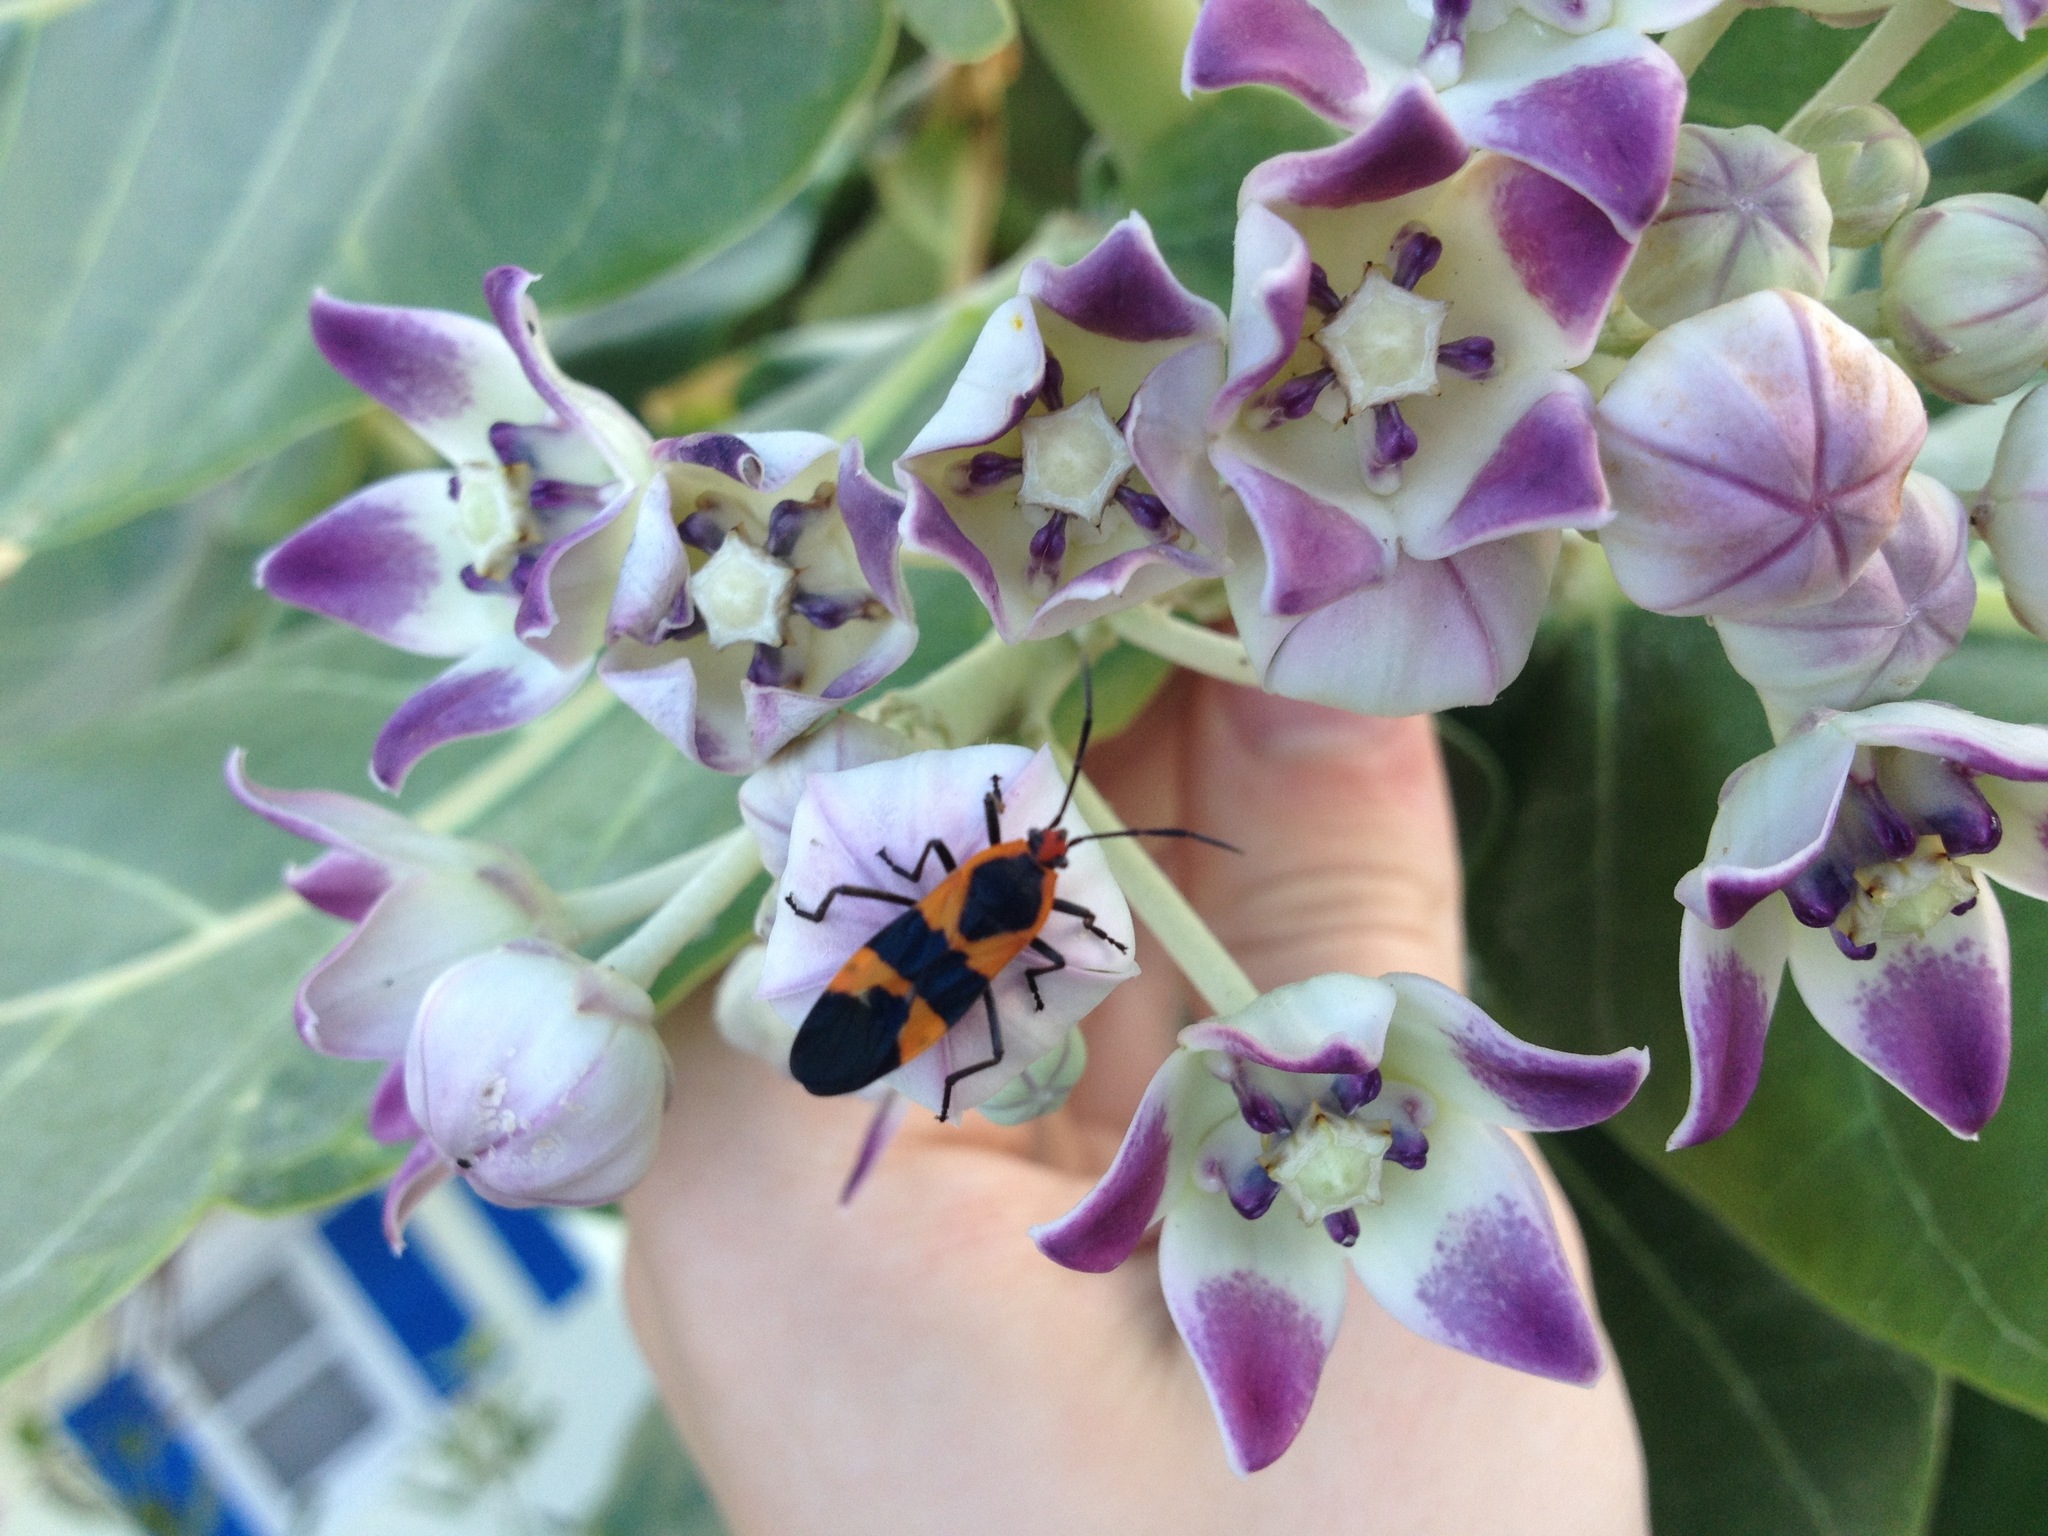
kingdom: Animalia
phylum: Arthropoda
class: Insecta
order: Hemiptera
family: Lygaeidae
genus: Oncopeltus
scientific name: Oncopeltus fasciatus
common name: Large milkweed bug
